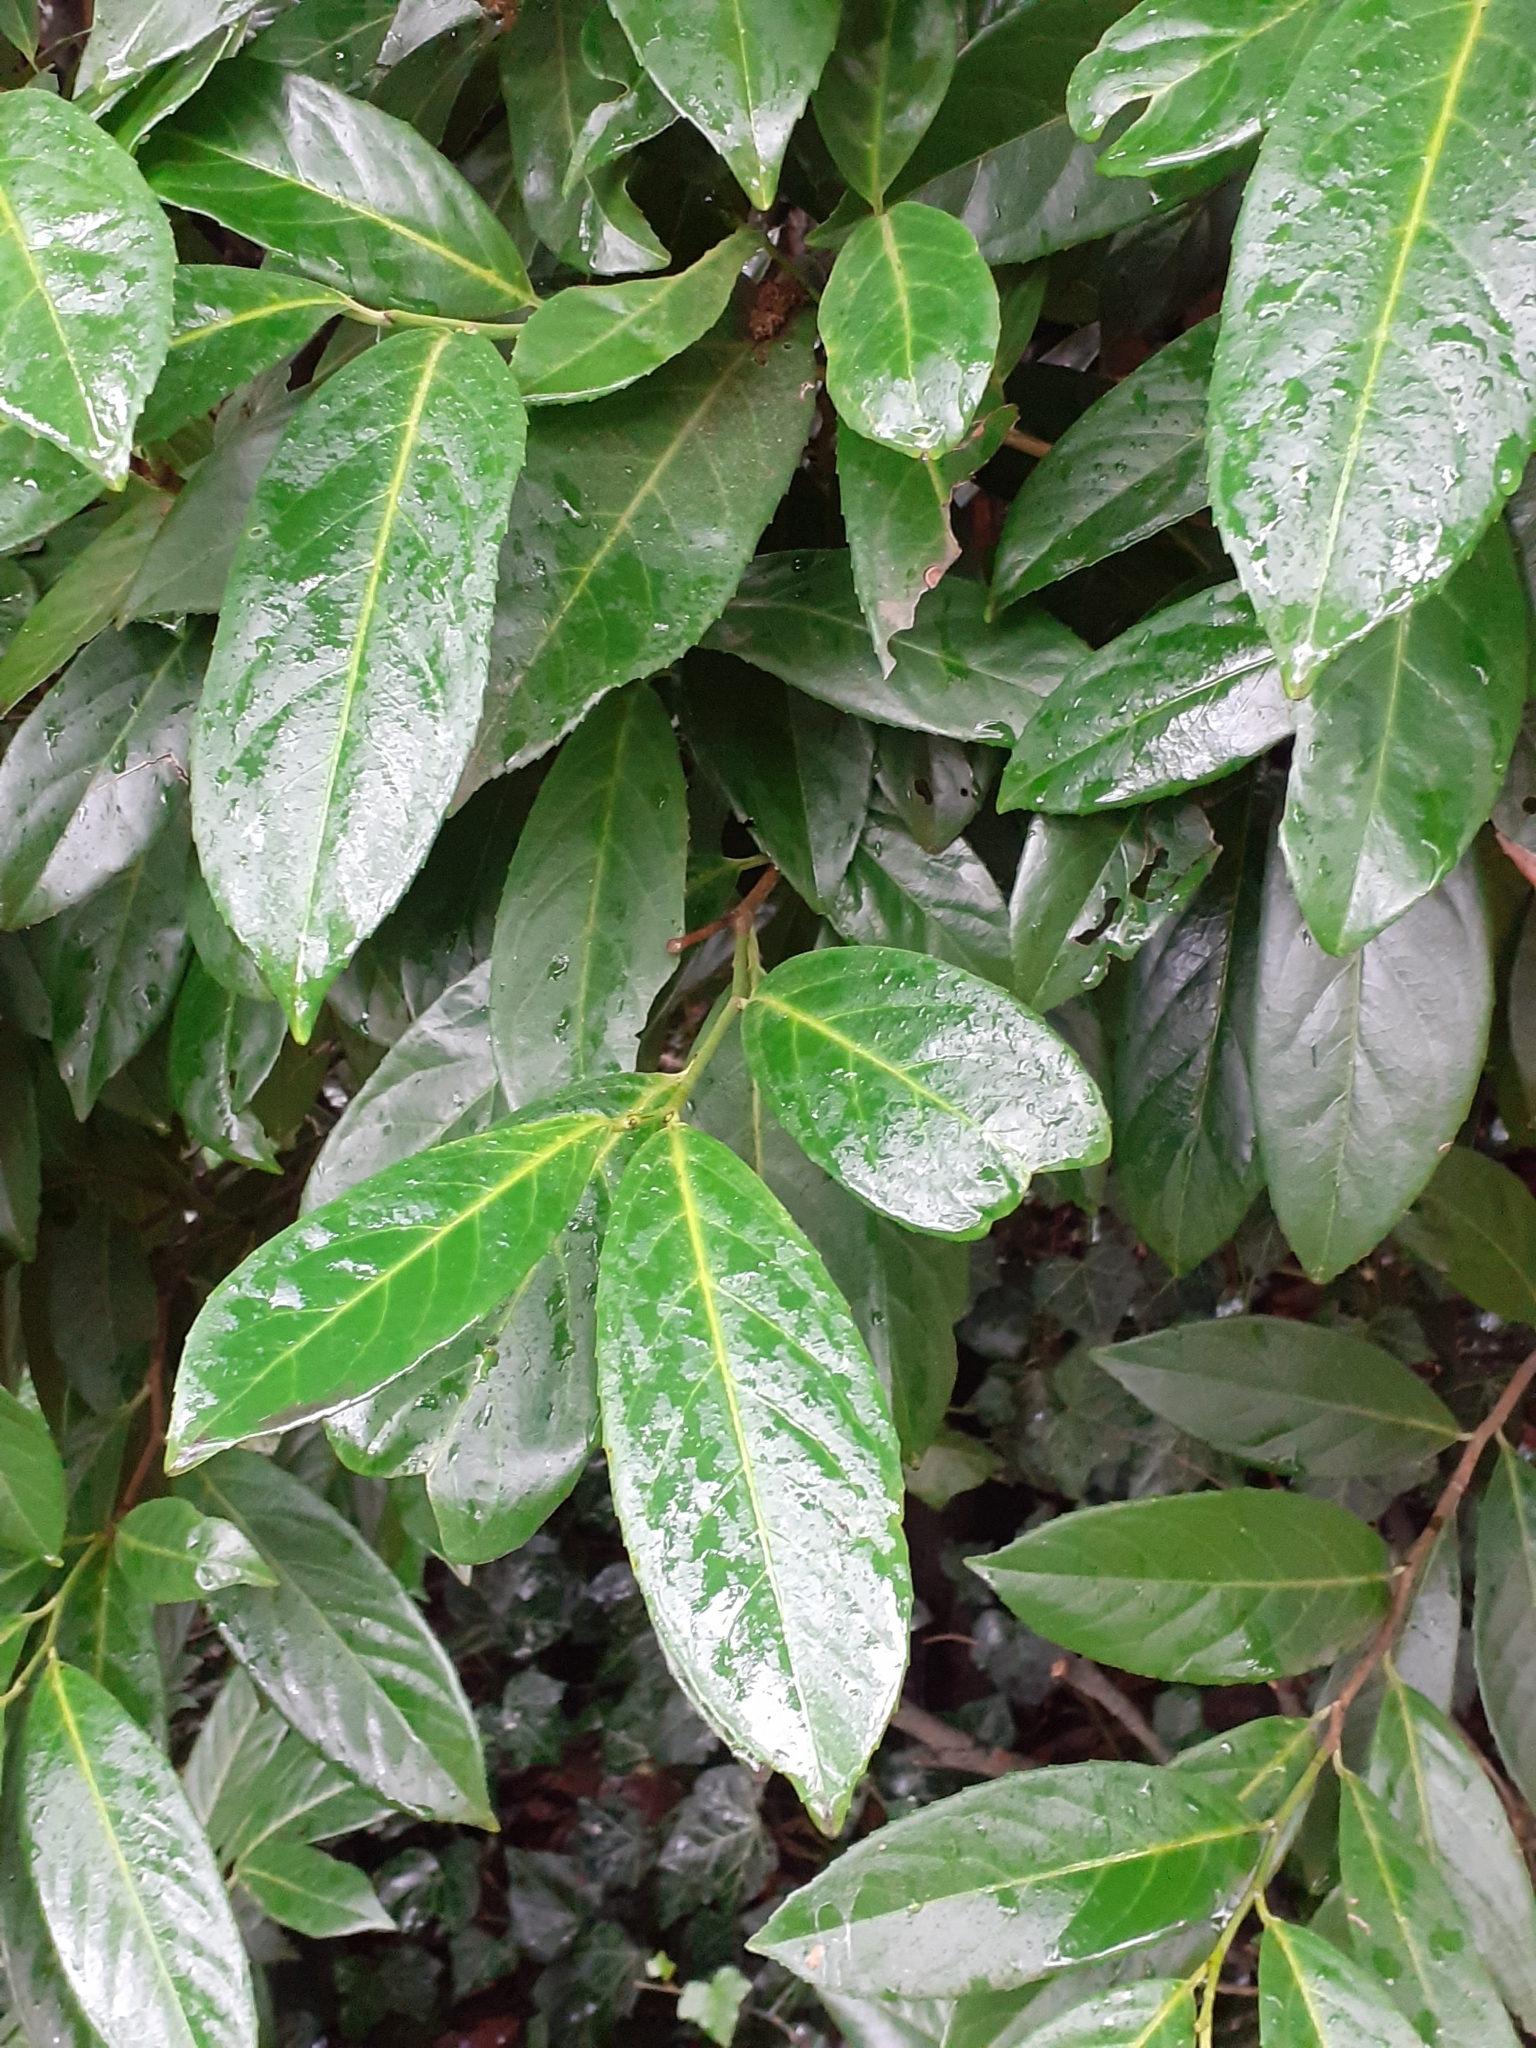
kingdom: Plantae
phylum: Tracheophyta
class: Magnoliopsida
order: Rosales
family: Rosaceae
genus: Prunus
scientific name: Prunus laurocerasus
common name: Cherry laurel
